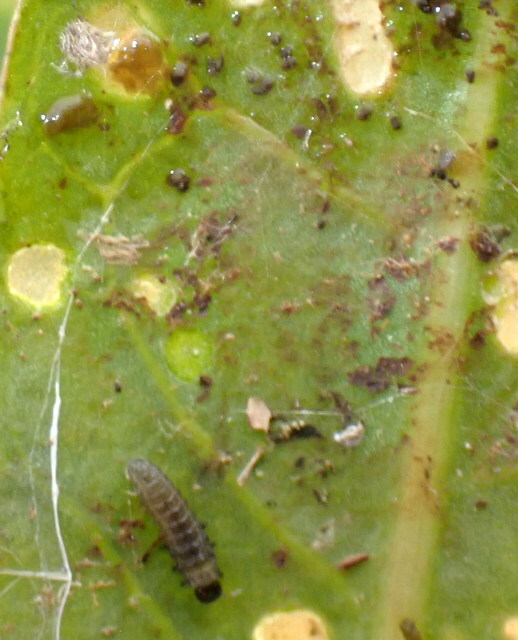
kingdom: Animalia
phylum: Arthropoda
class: Insecta
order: Coleoptera
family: Chrysomelidae
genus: Agasicles
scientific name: Agasicles hygrophila
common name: Alligatorweed flea beetle
